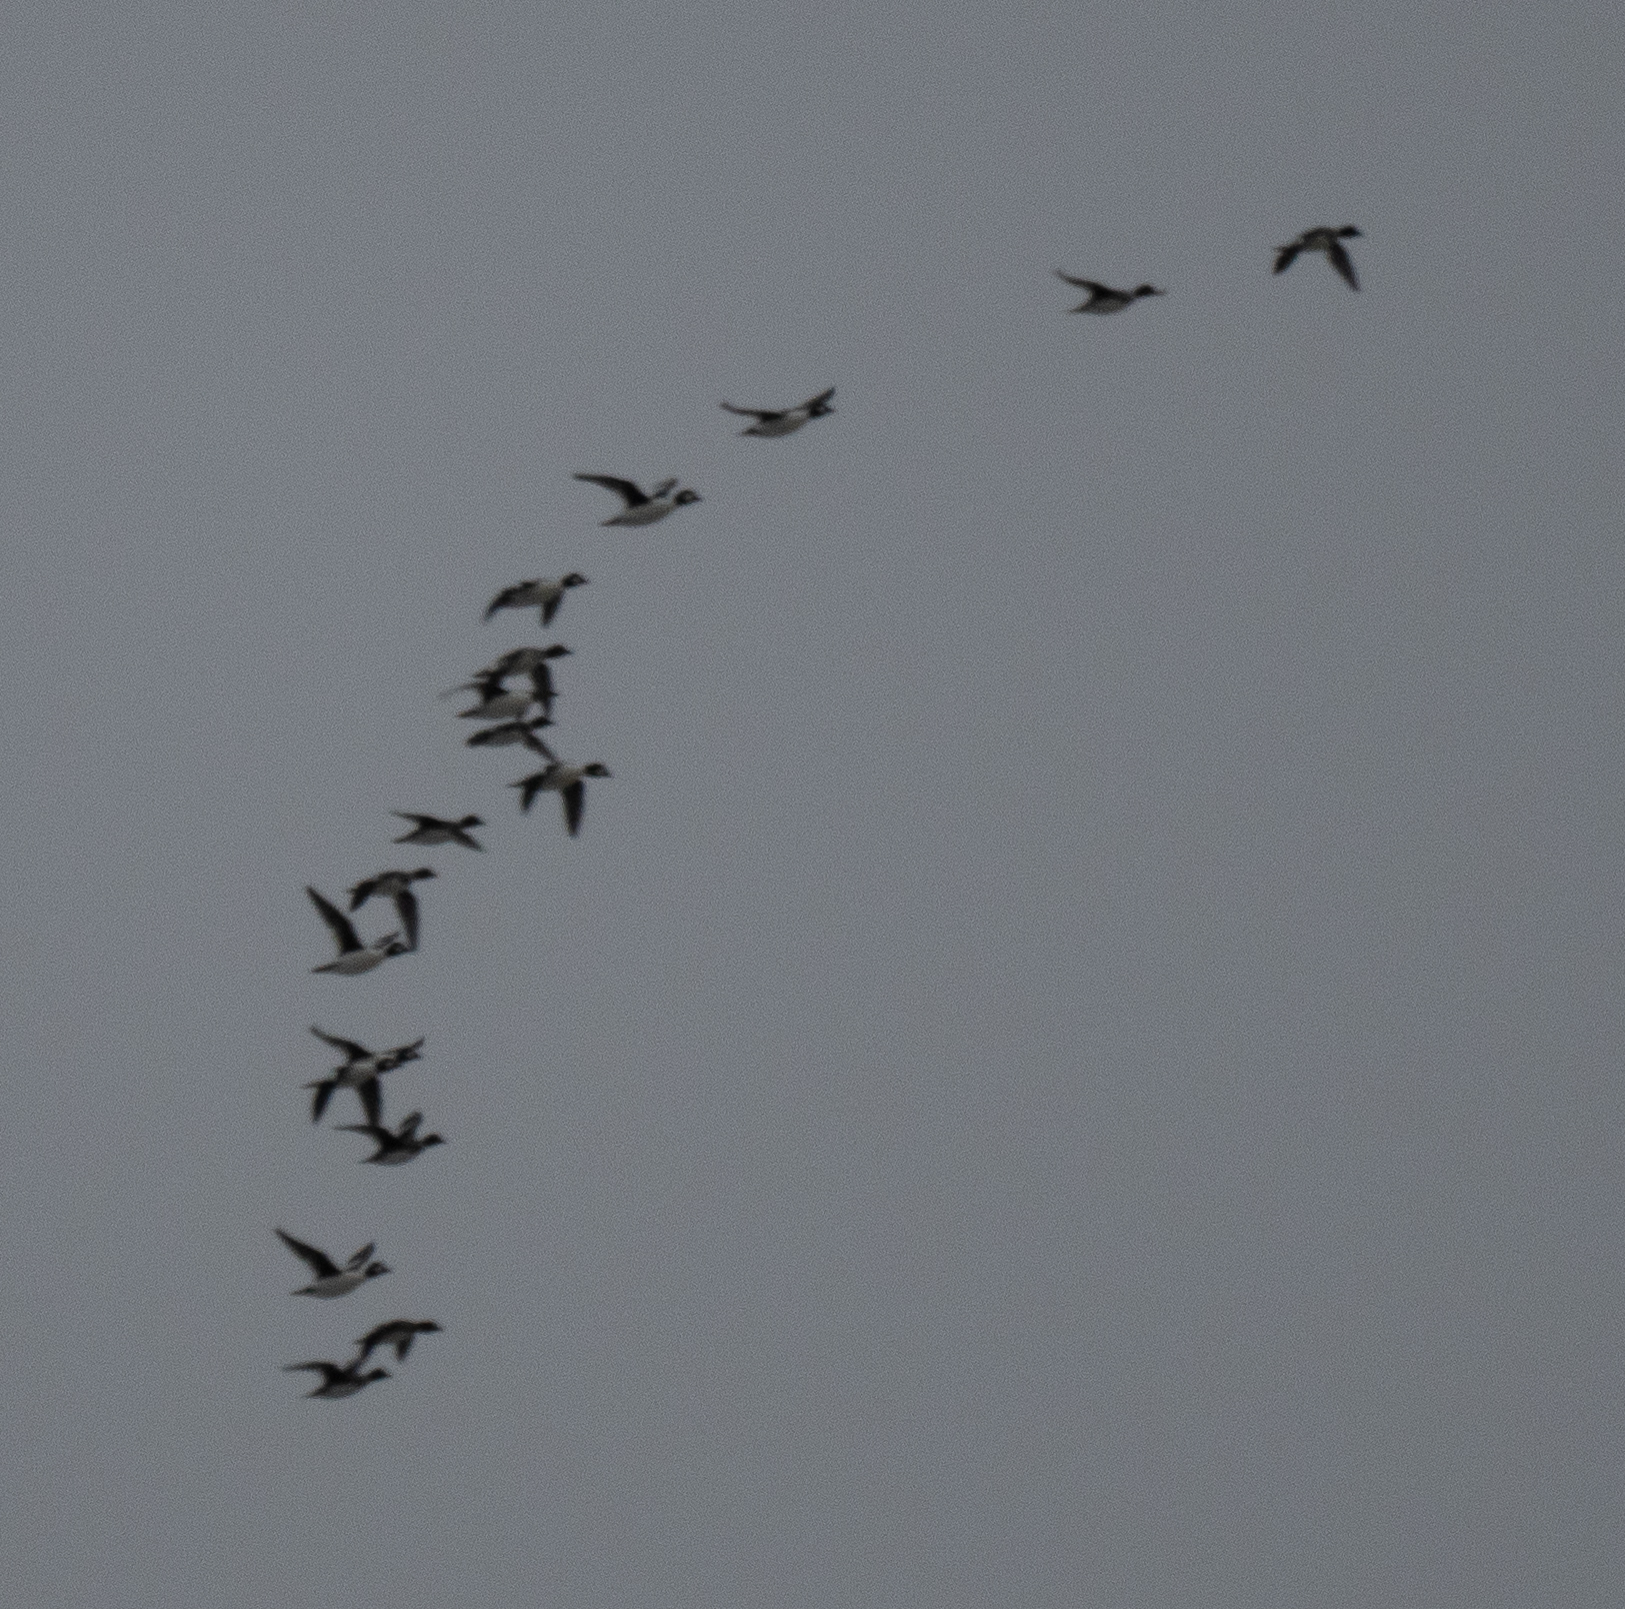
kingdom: Animalia
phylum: Chordata
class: Aves
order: Anseriformes
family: Anatidae
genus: Bucephala
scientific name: Bucephala clangula
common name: Common goldeneye
